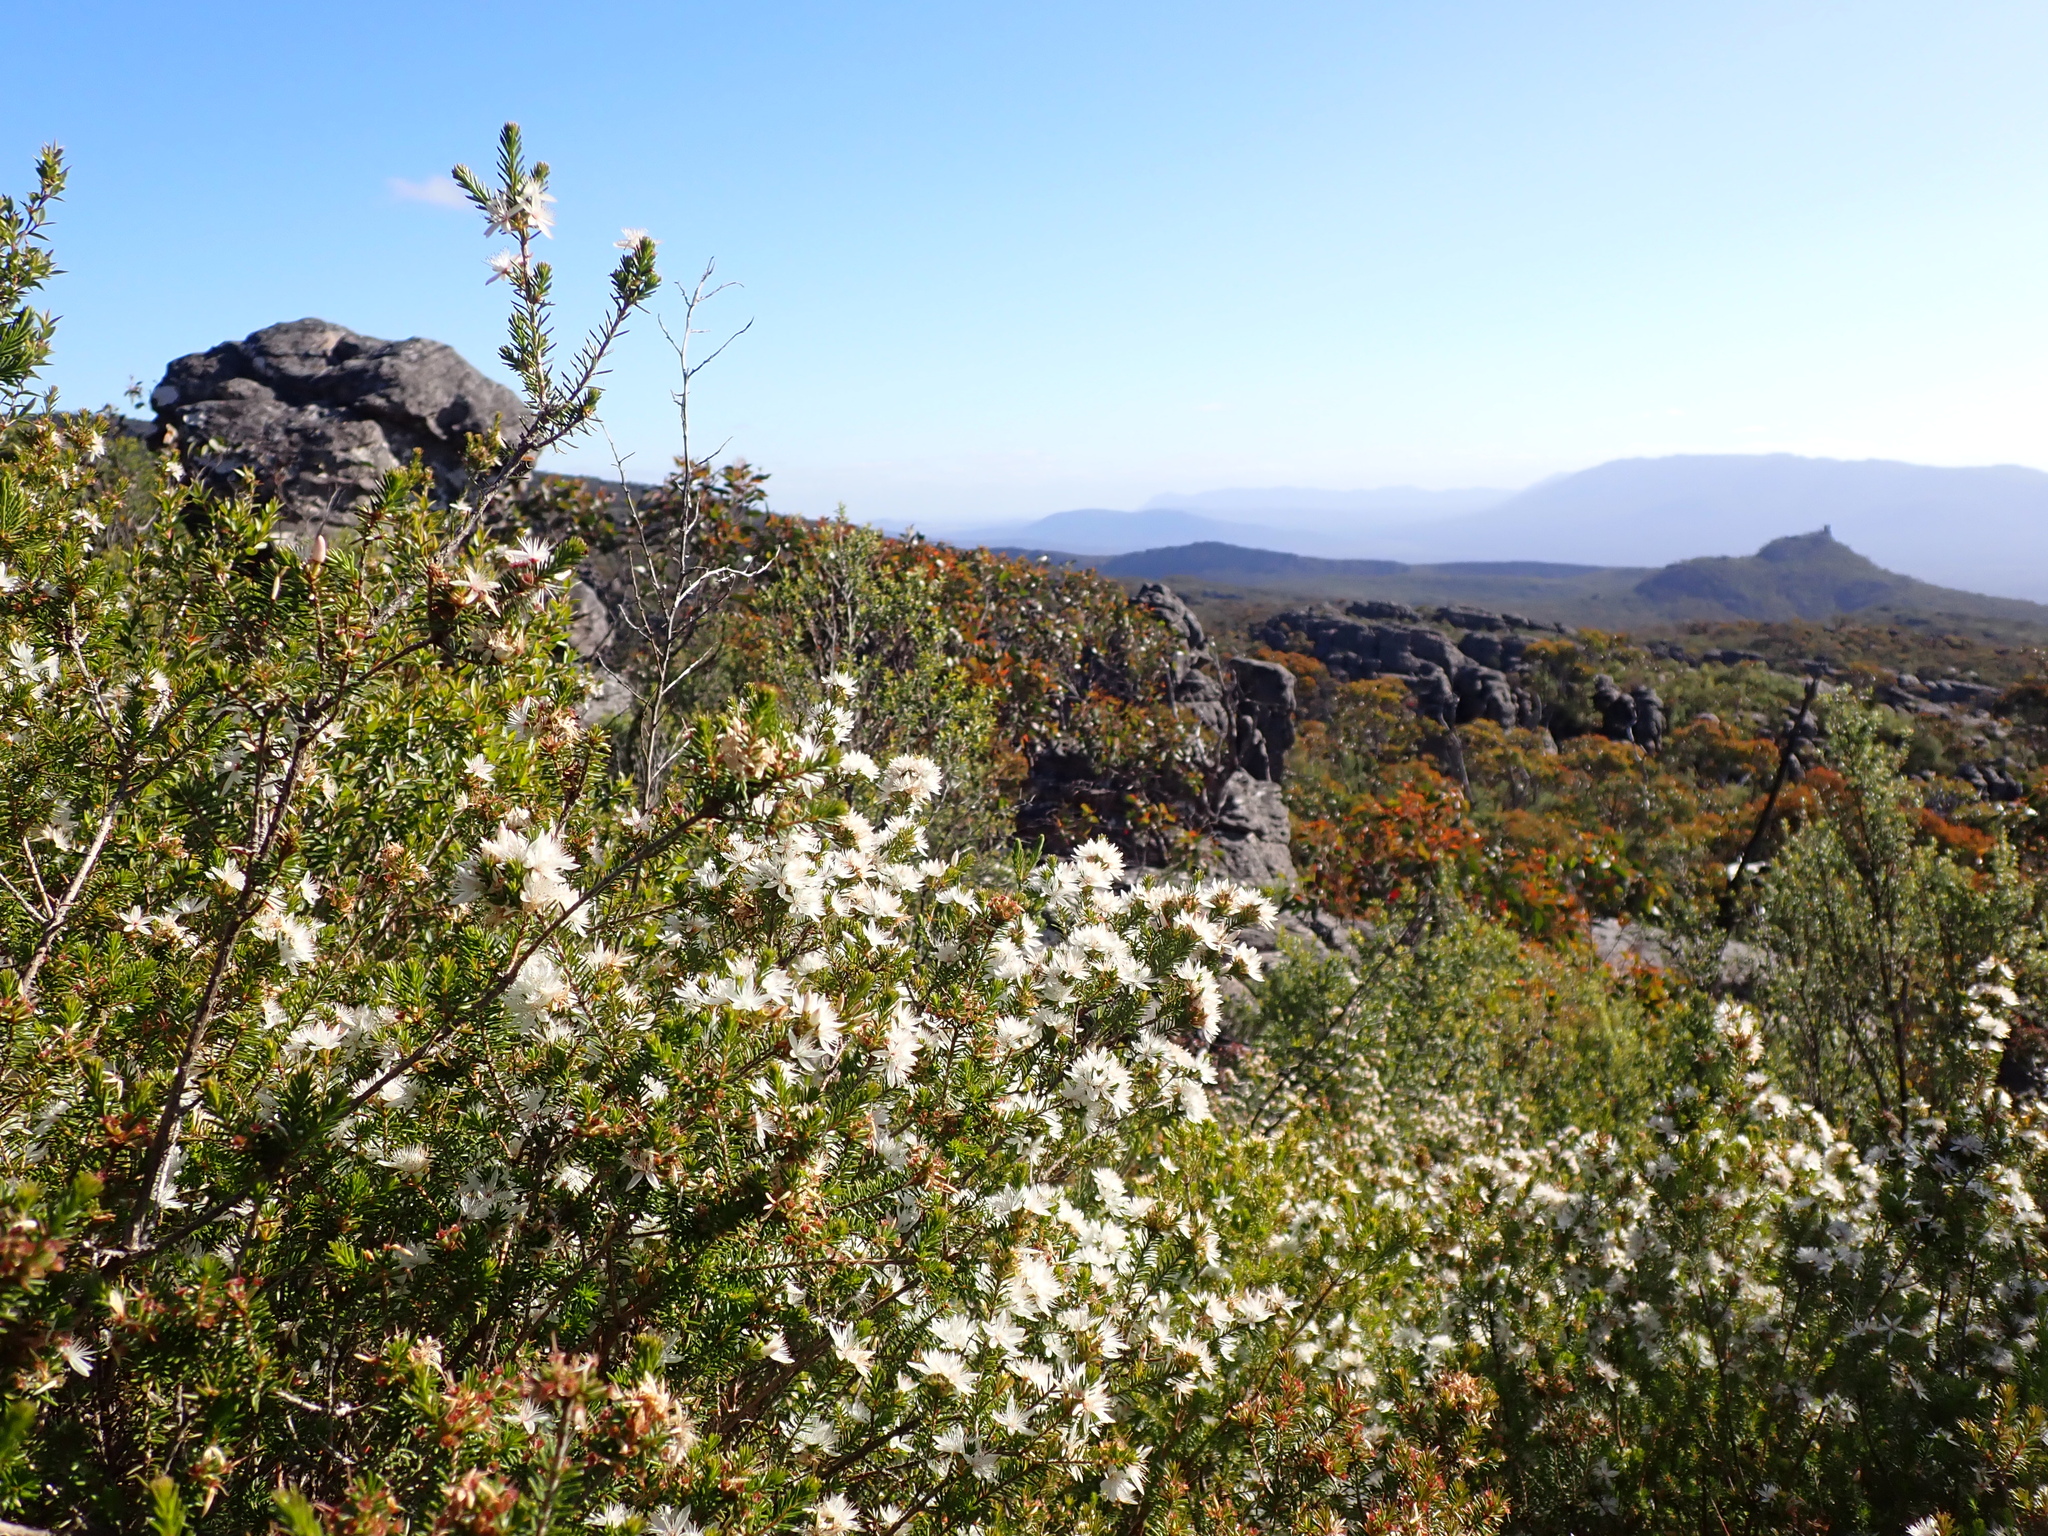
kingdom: Plantae
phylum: Tracheophyta
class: Magnoliopsida
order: Myrtales
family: Myrtaceae
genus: Calytrix
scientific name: Calytrix alpestris
